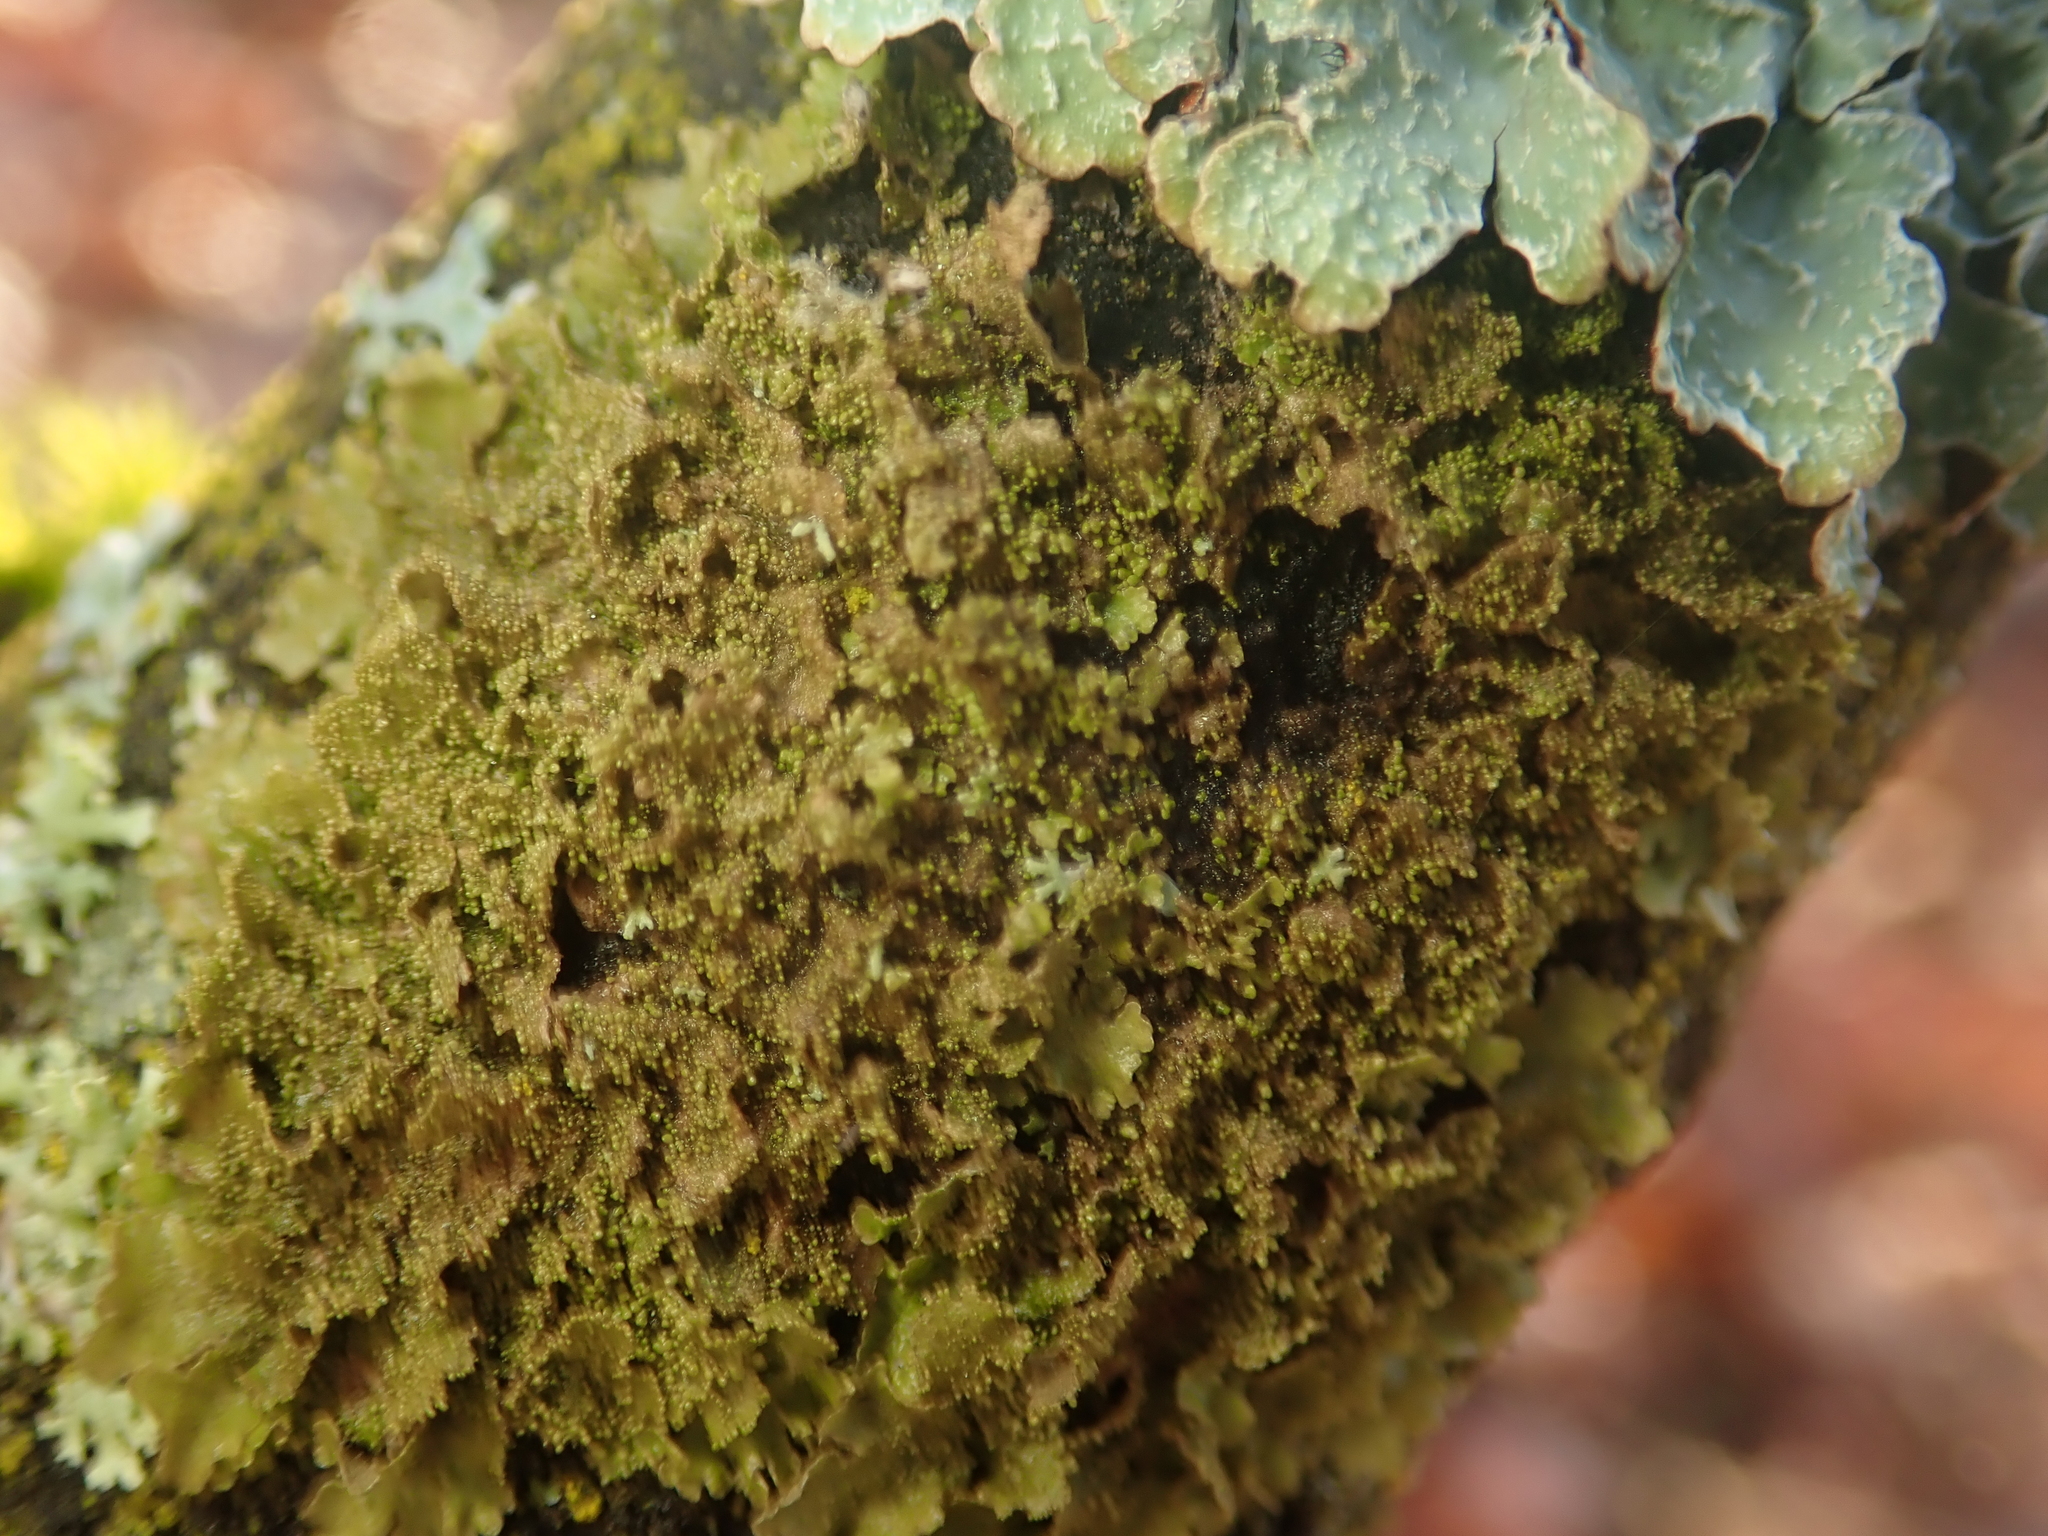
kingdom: Fungi
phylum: Ascomycota
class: Lecanoromycetes
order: Lecanorales
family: Parmeliaceae
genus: Melanohalea
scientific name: Melanohalea exasperatula
